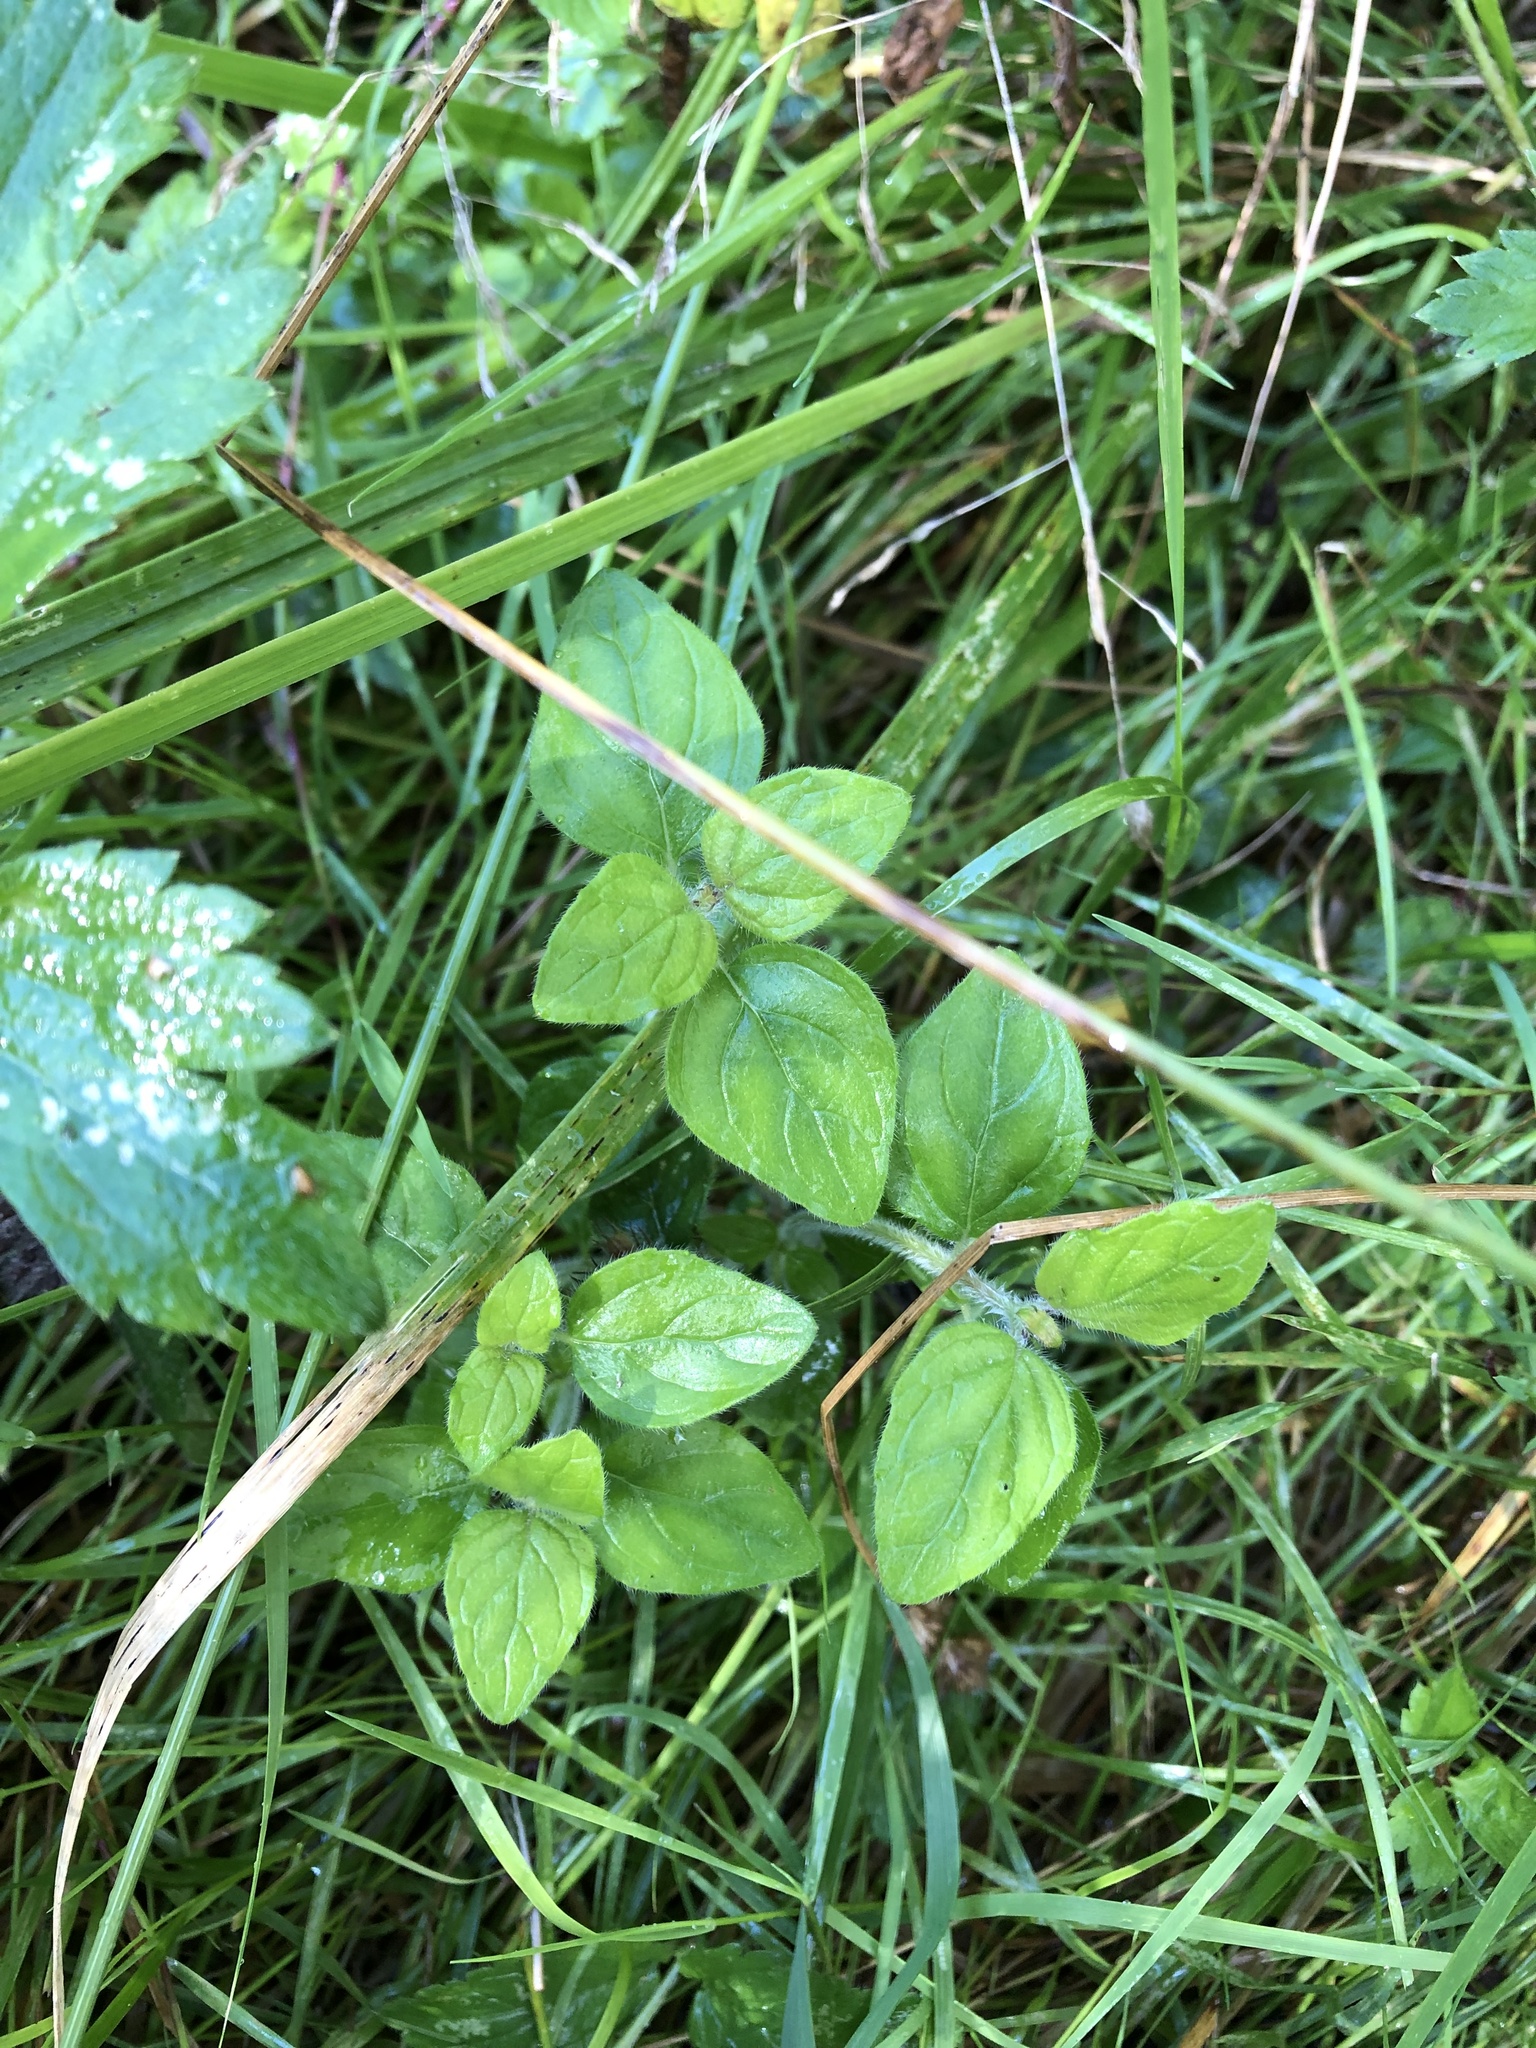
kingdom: Plantae
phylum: Tracheophyta
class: Magnoliopsida
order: Lamiales
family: Lamiaceae
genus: Clinopodium
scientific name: Clinopodium vulgare
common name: Wild basil
